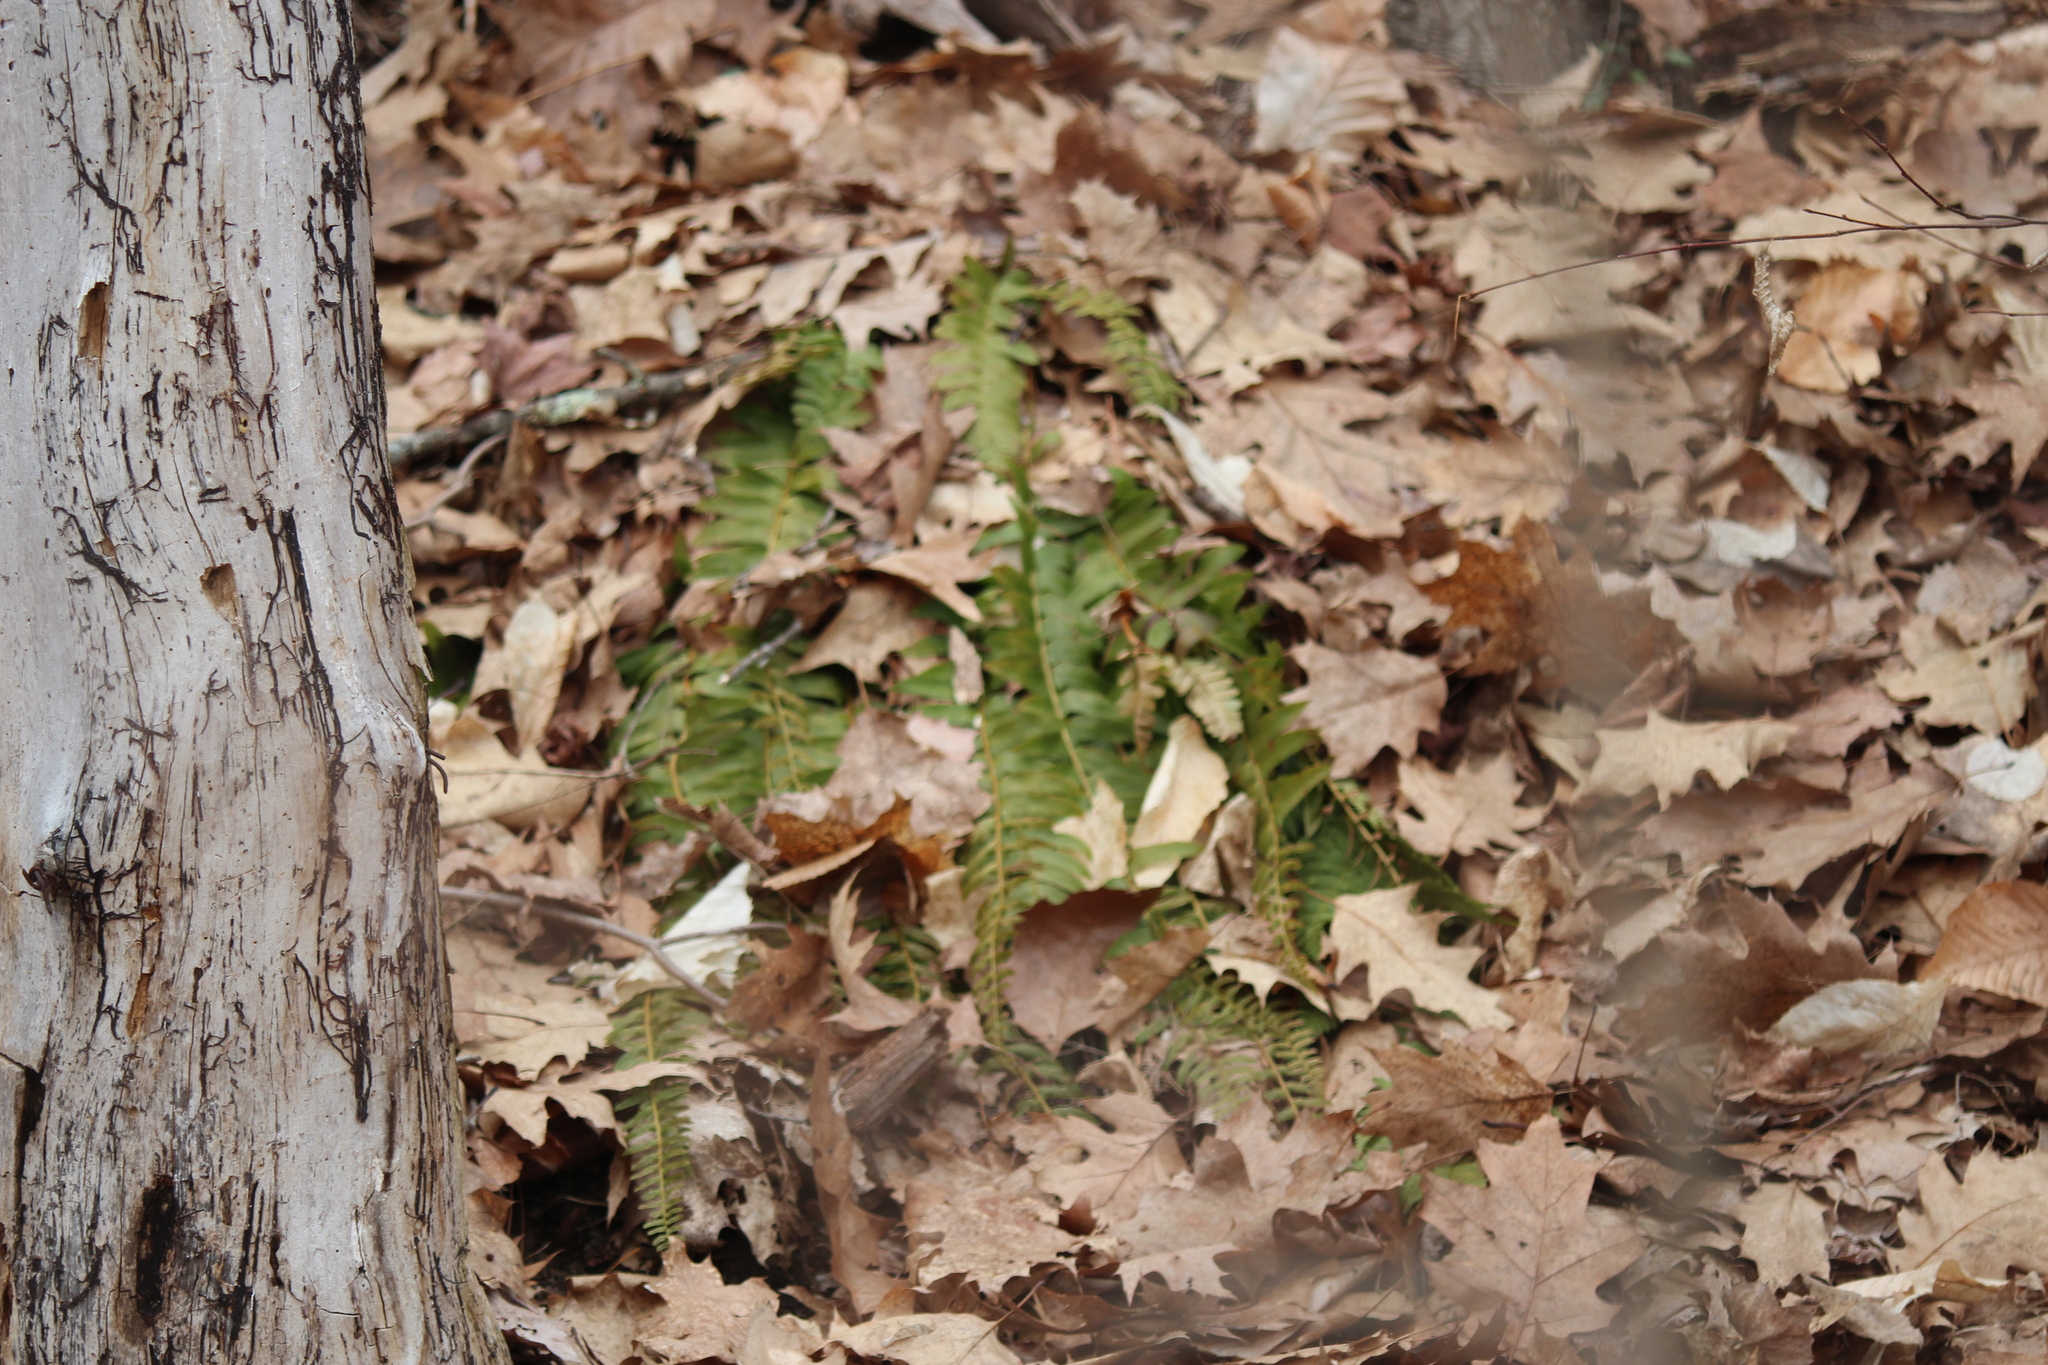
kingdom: Plantae
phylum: Tracheophyta
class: Polypodiopsida
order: Polypodiales
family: Dryopteridaceae
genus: Polystichum
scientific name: Polystichum acrostichoides
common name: Christmas fern
